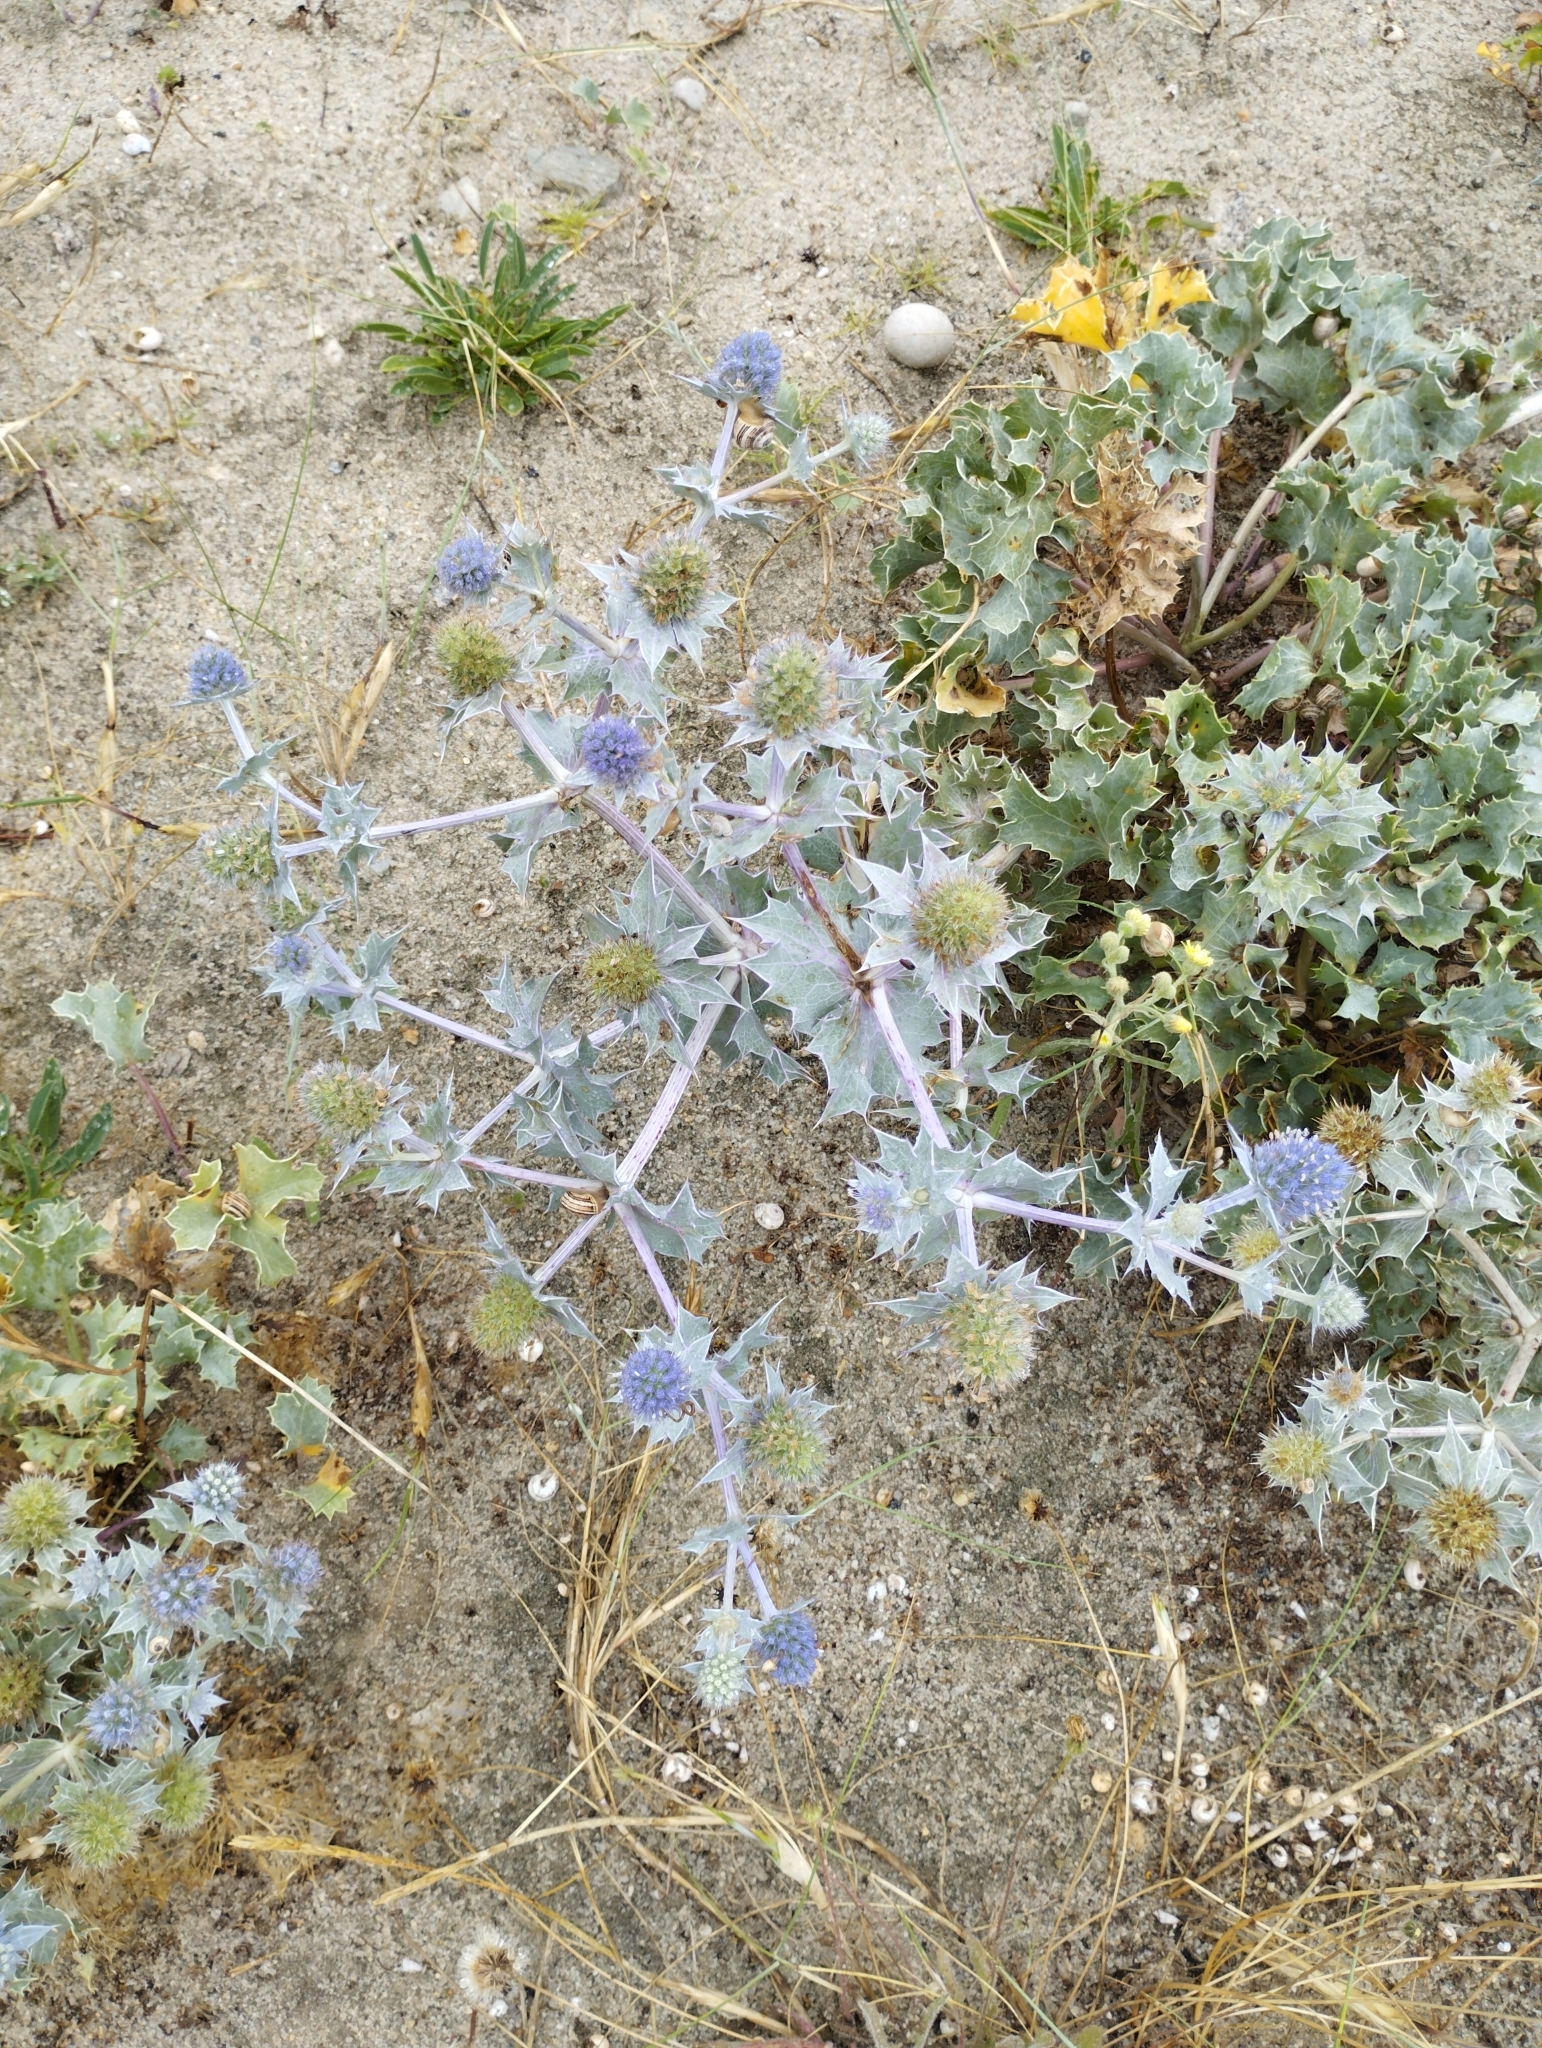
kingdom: Plantae
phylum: Tracheophyta
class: Magnoliopsida
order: Apiales
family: Apiaceae
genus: Eryngium
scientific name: Eryngium maritimum
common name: Sea-holly
